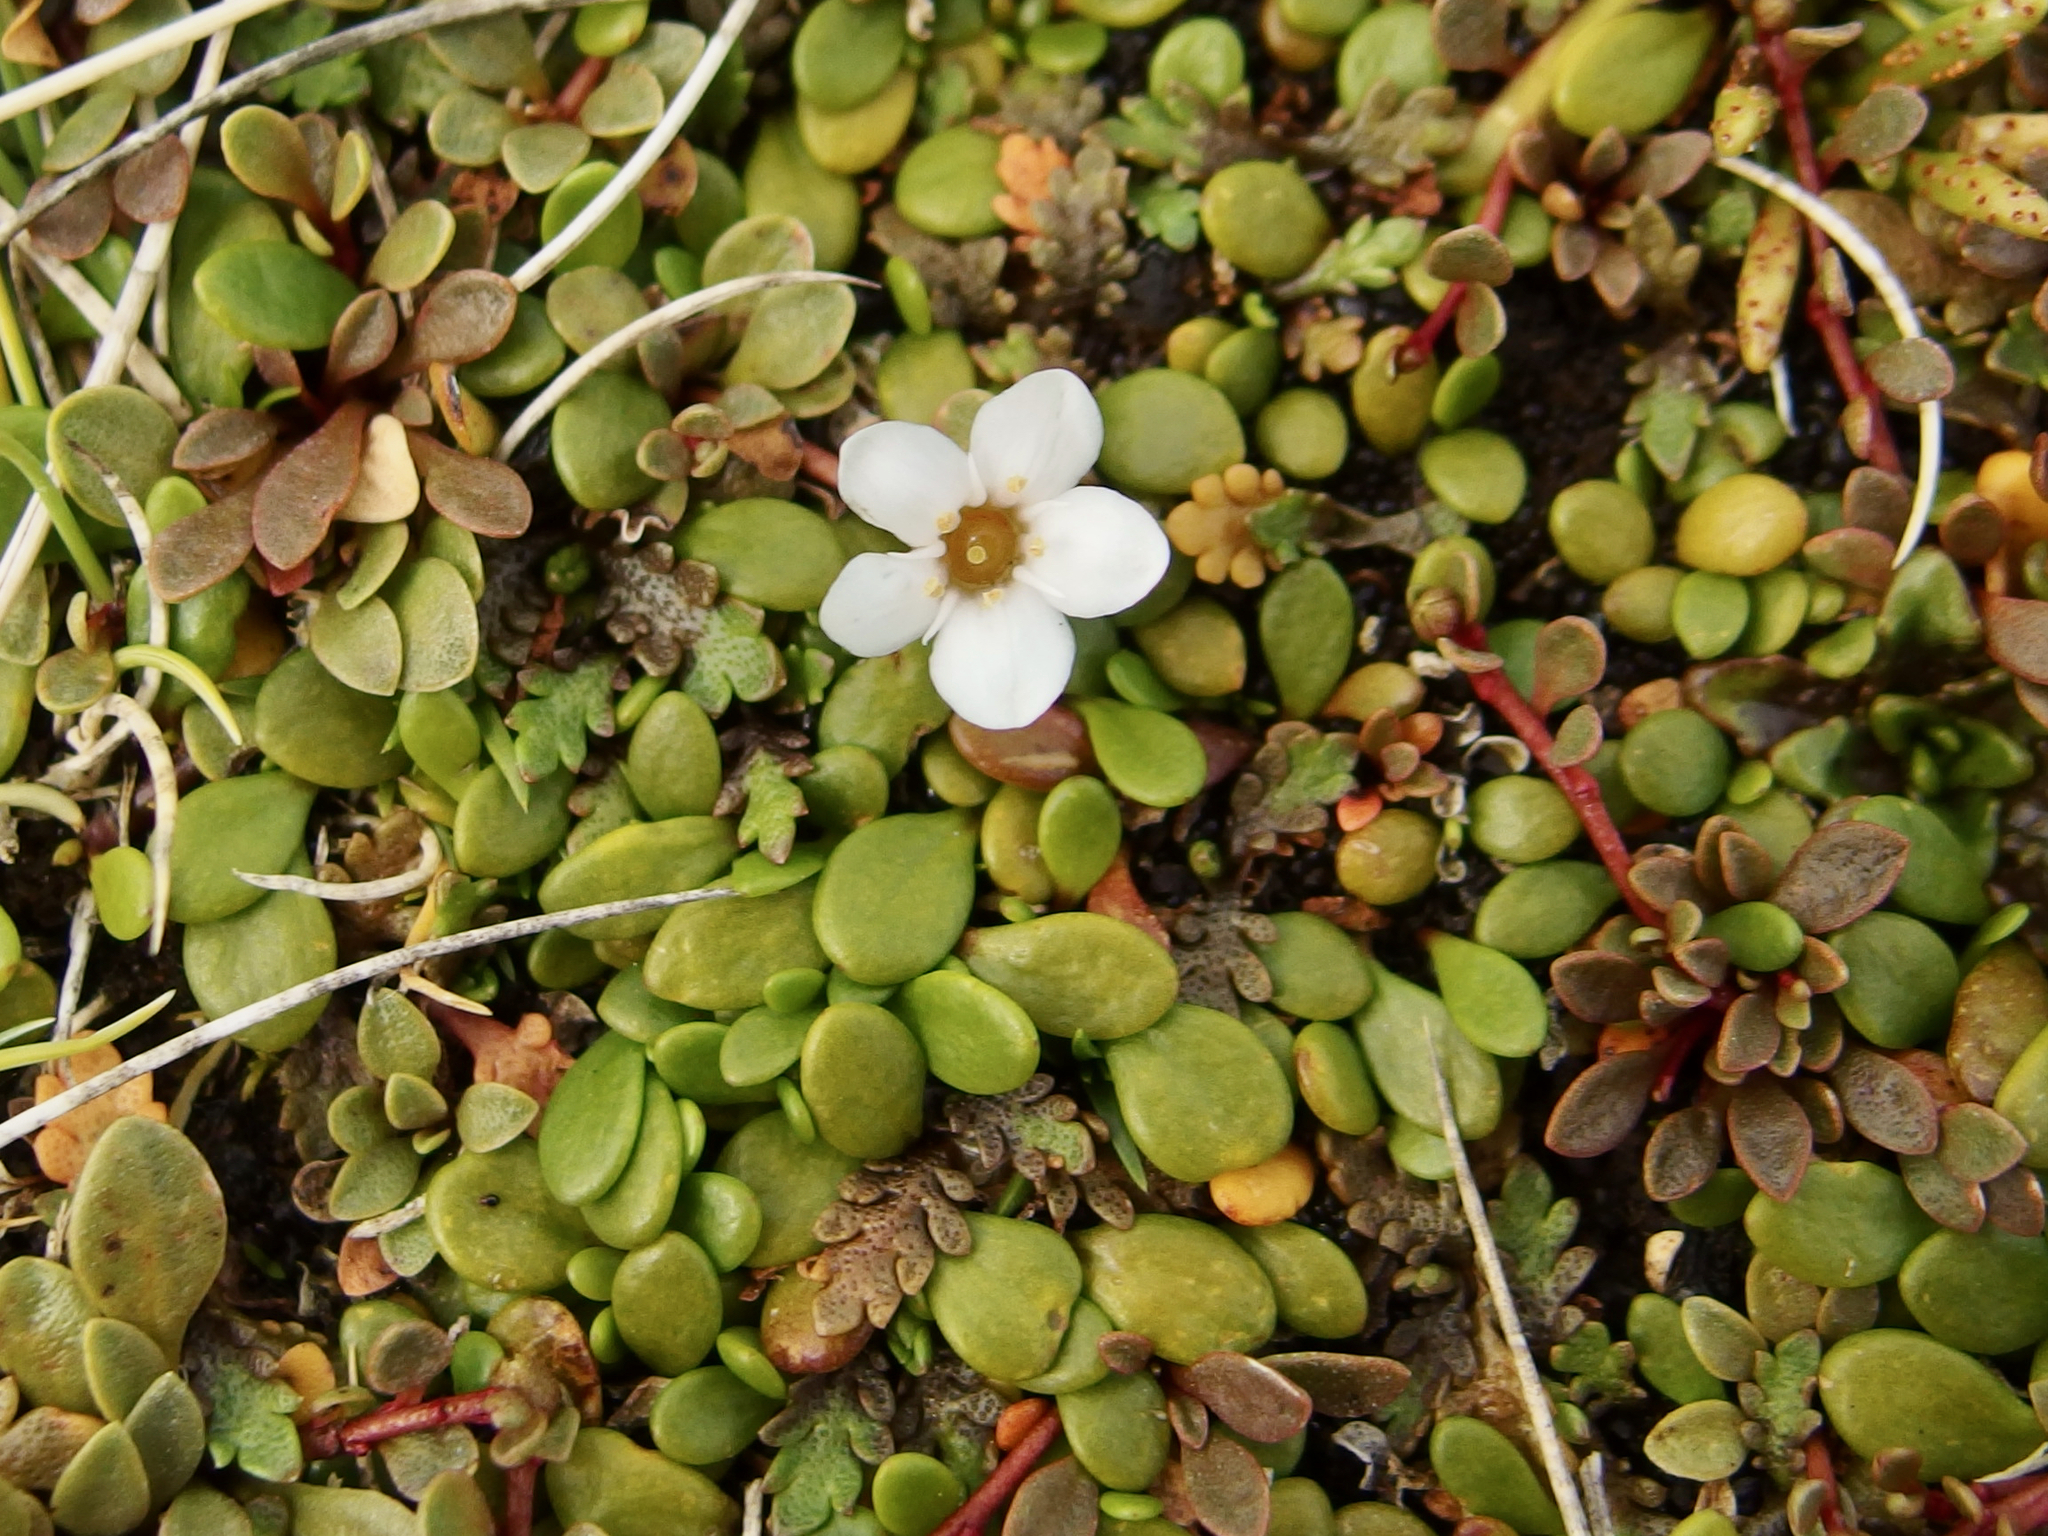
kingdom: Plantae
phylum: Tracheophyta
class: Magnoliopsida
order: Ericales
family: Primulaceae
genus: Samolus
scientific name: Samolus repens
